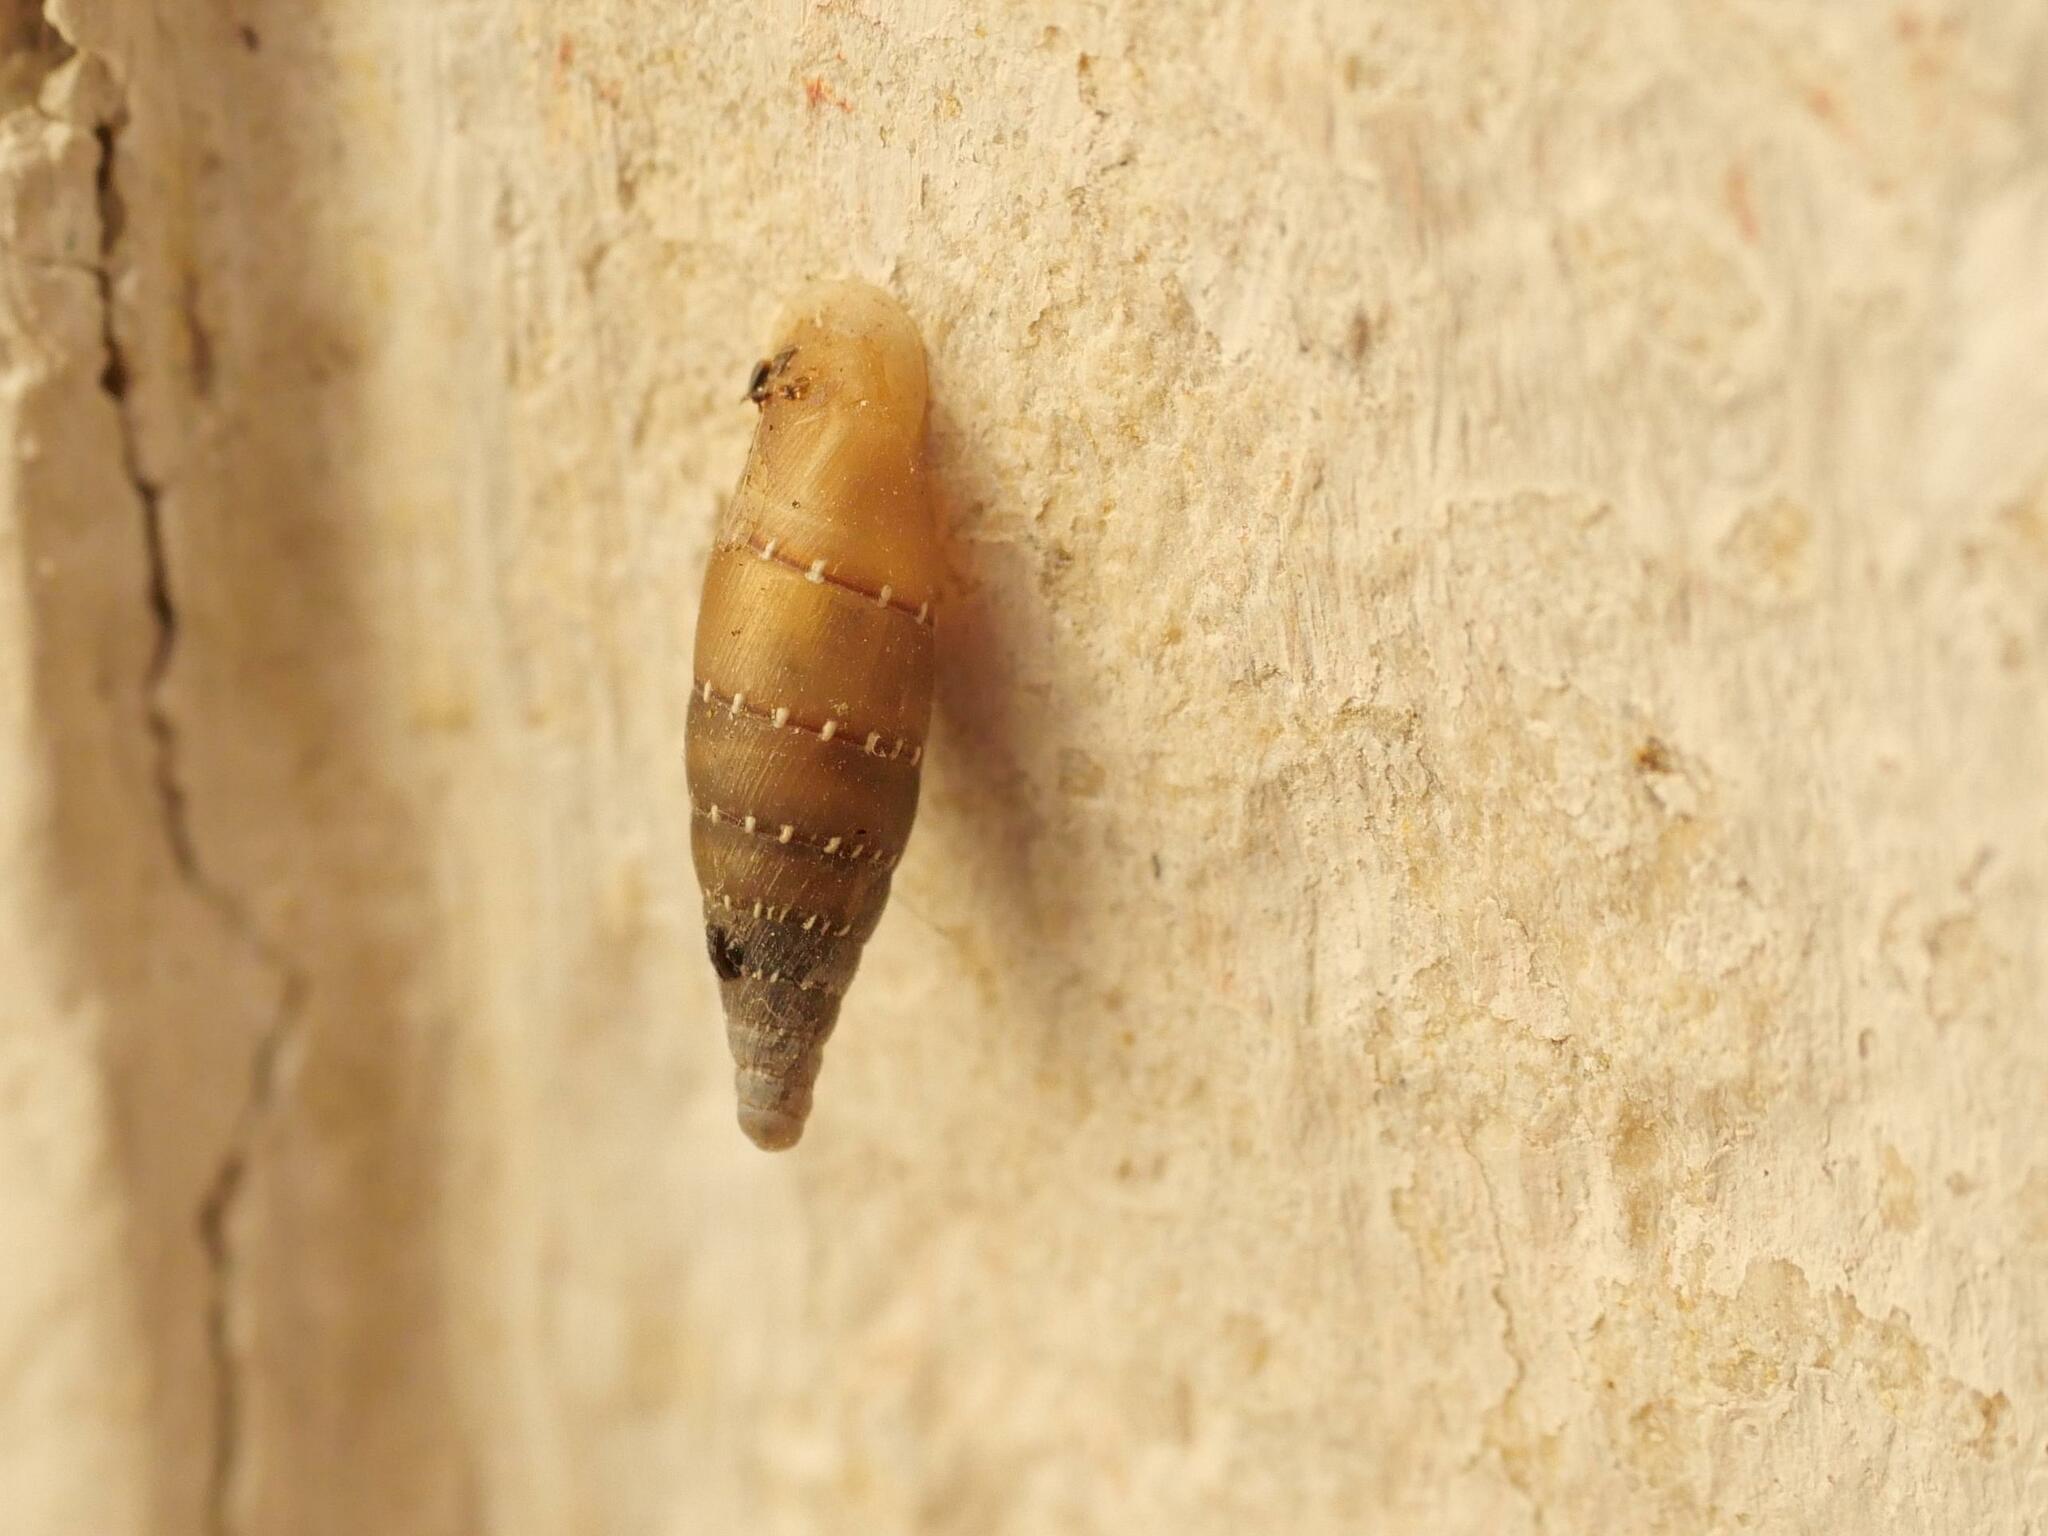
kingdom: Animalia
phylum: Mollusca
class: Gastropoda
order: Stylommatophora
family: Clausiliidae
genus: Papillifera
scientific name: Papillifera papillaris
